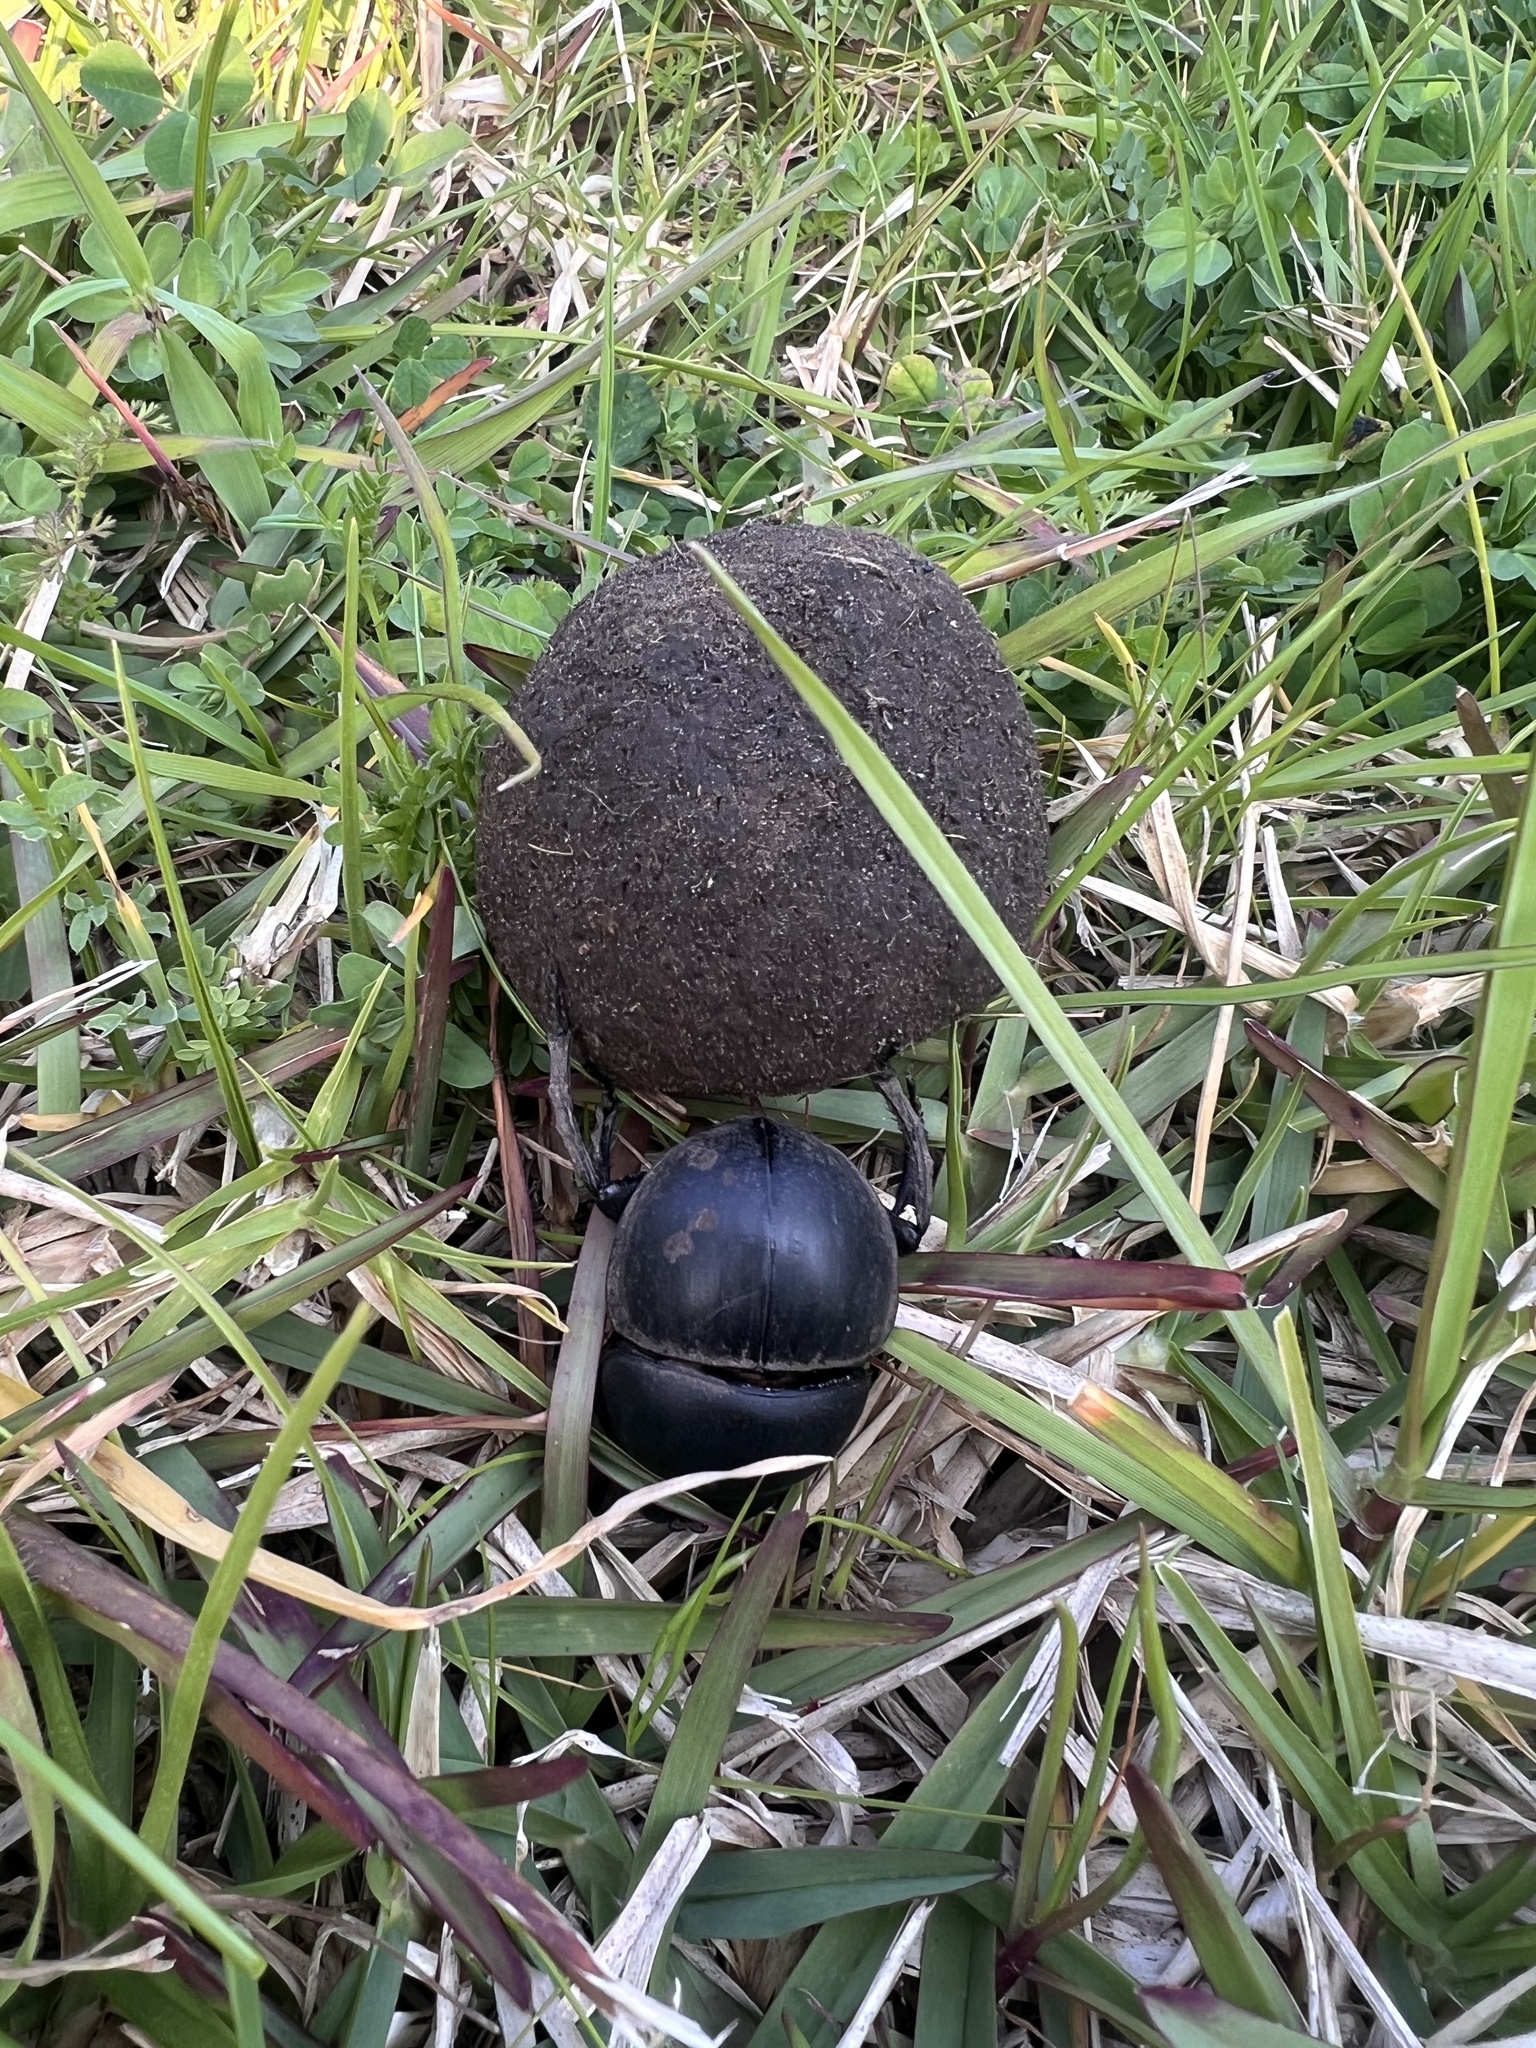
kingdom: Animalia
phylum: Arthropoda
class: Insecta
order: Coleoptera
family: Scarabaeidae
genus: Circellium
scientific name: Circellium bacchus
